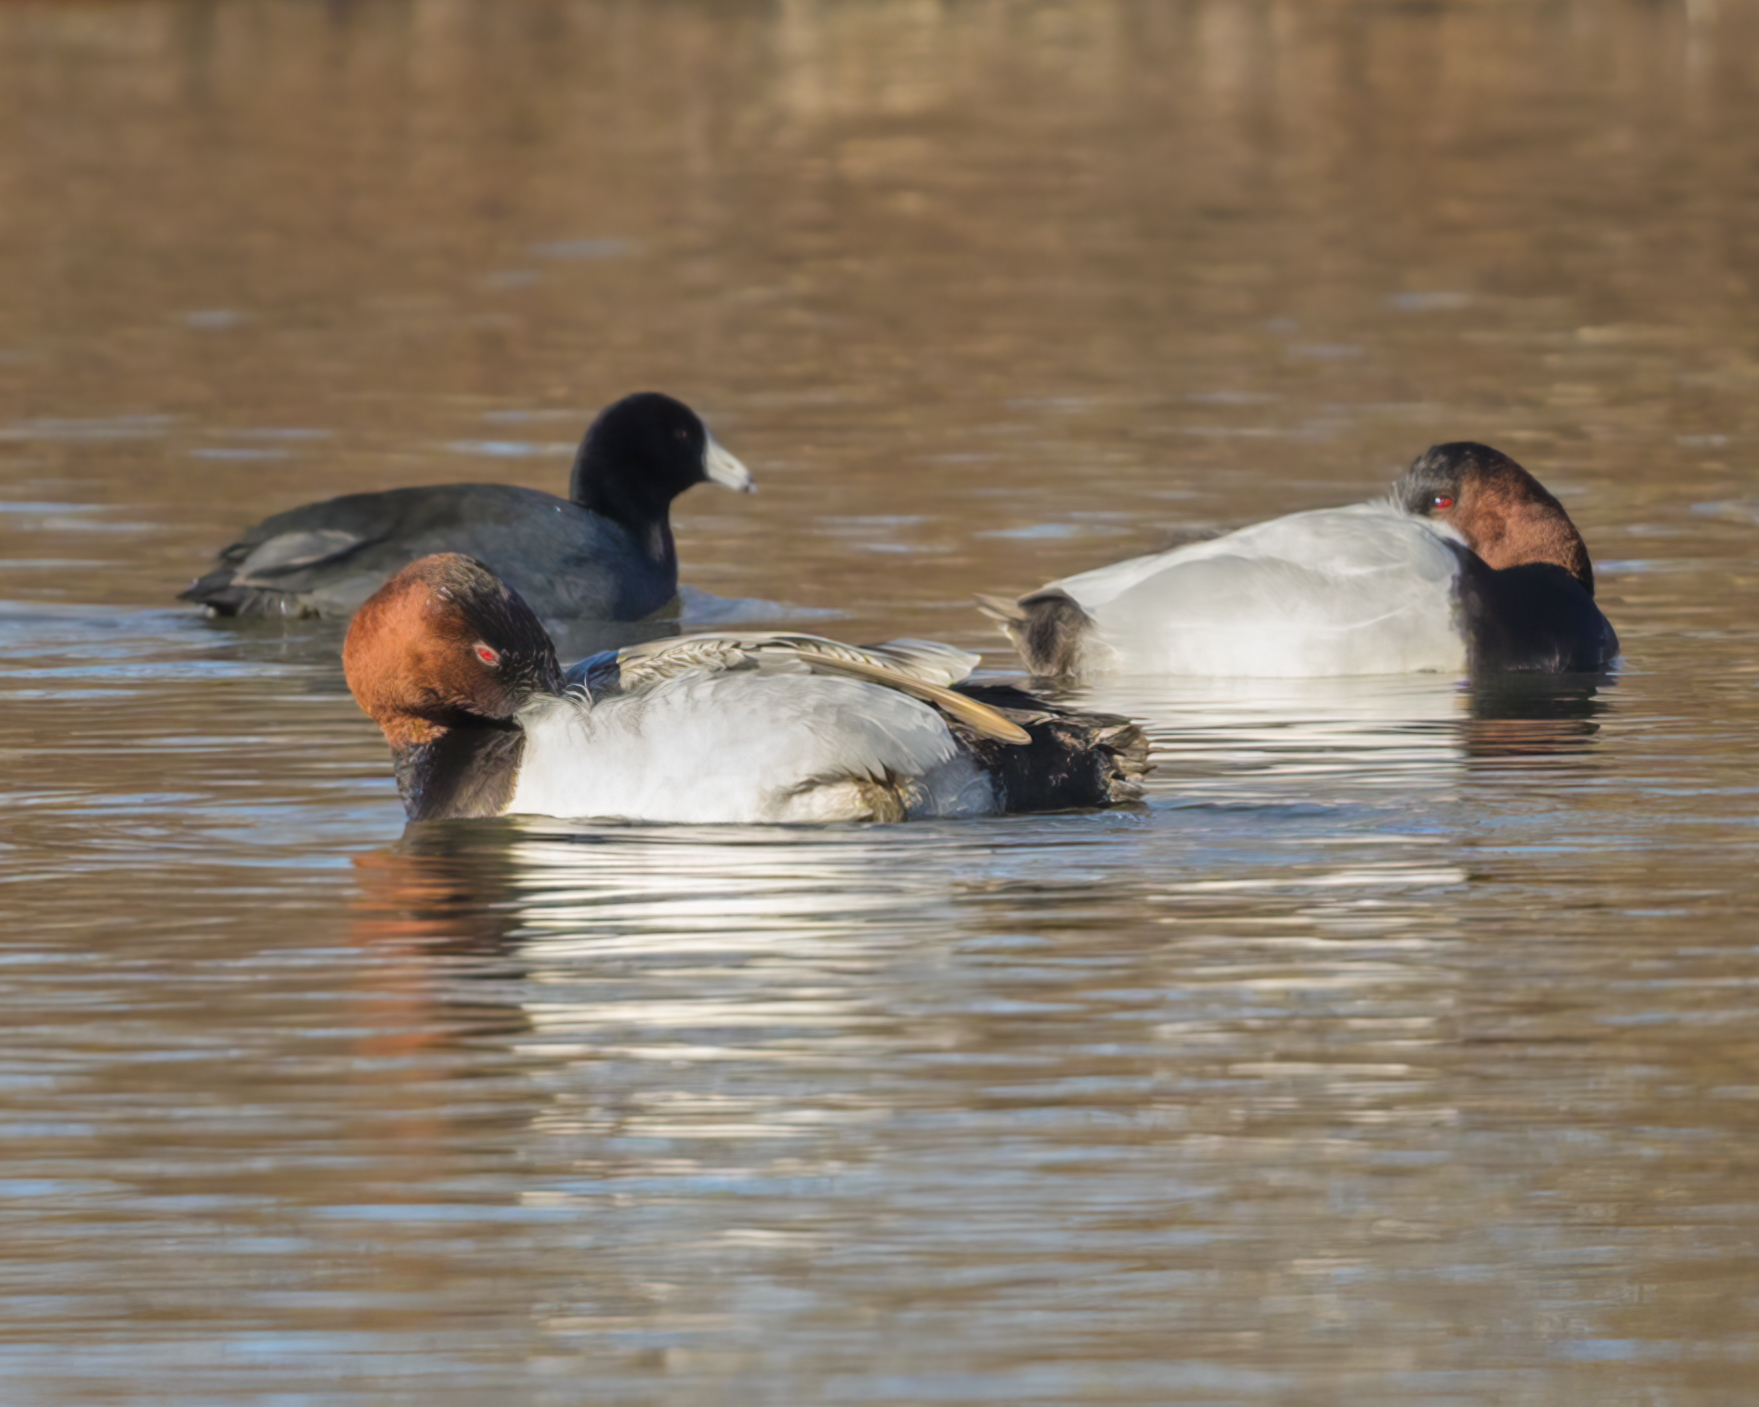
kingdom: Animalia
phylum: Chordata
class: Aves
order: Anseriformes
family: Anatidae
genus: Aythya
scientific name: Aythya americana
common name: Redhead
